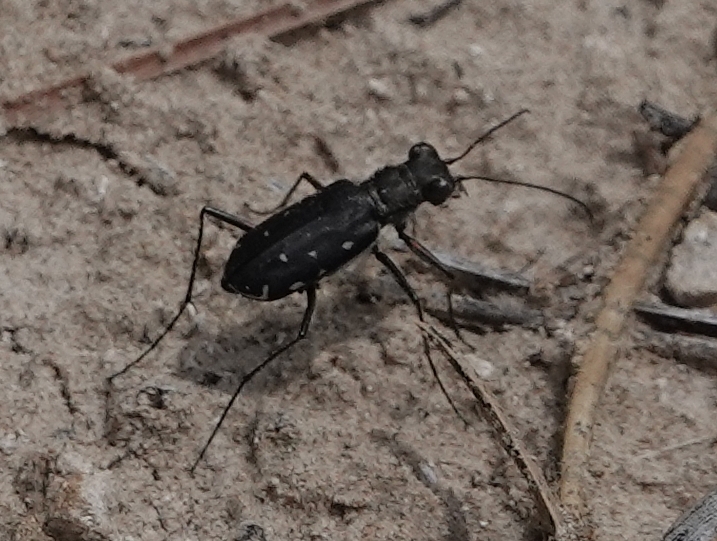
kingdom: Animalia
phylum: Arthropoda
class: Insecta
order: Coleoptera
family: Carabidae
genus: Cicindela
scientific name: Cicindela punctulata
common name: Punctured tiger beetle
